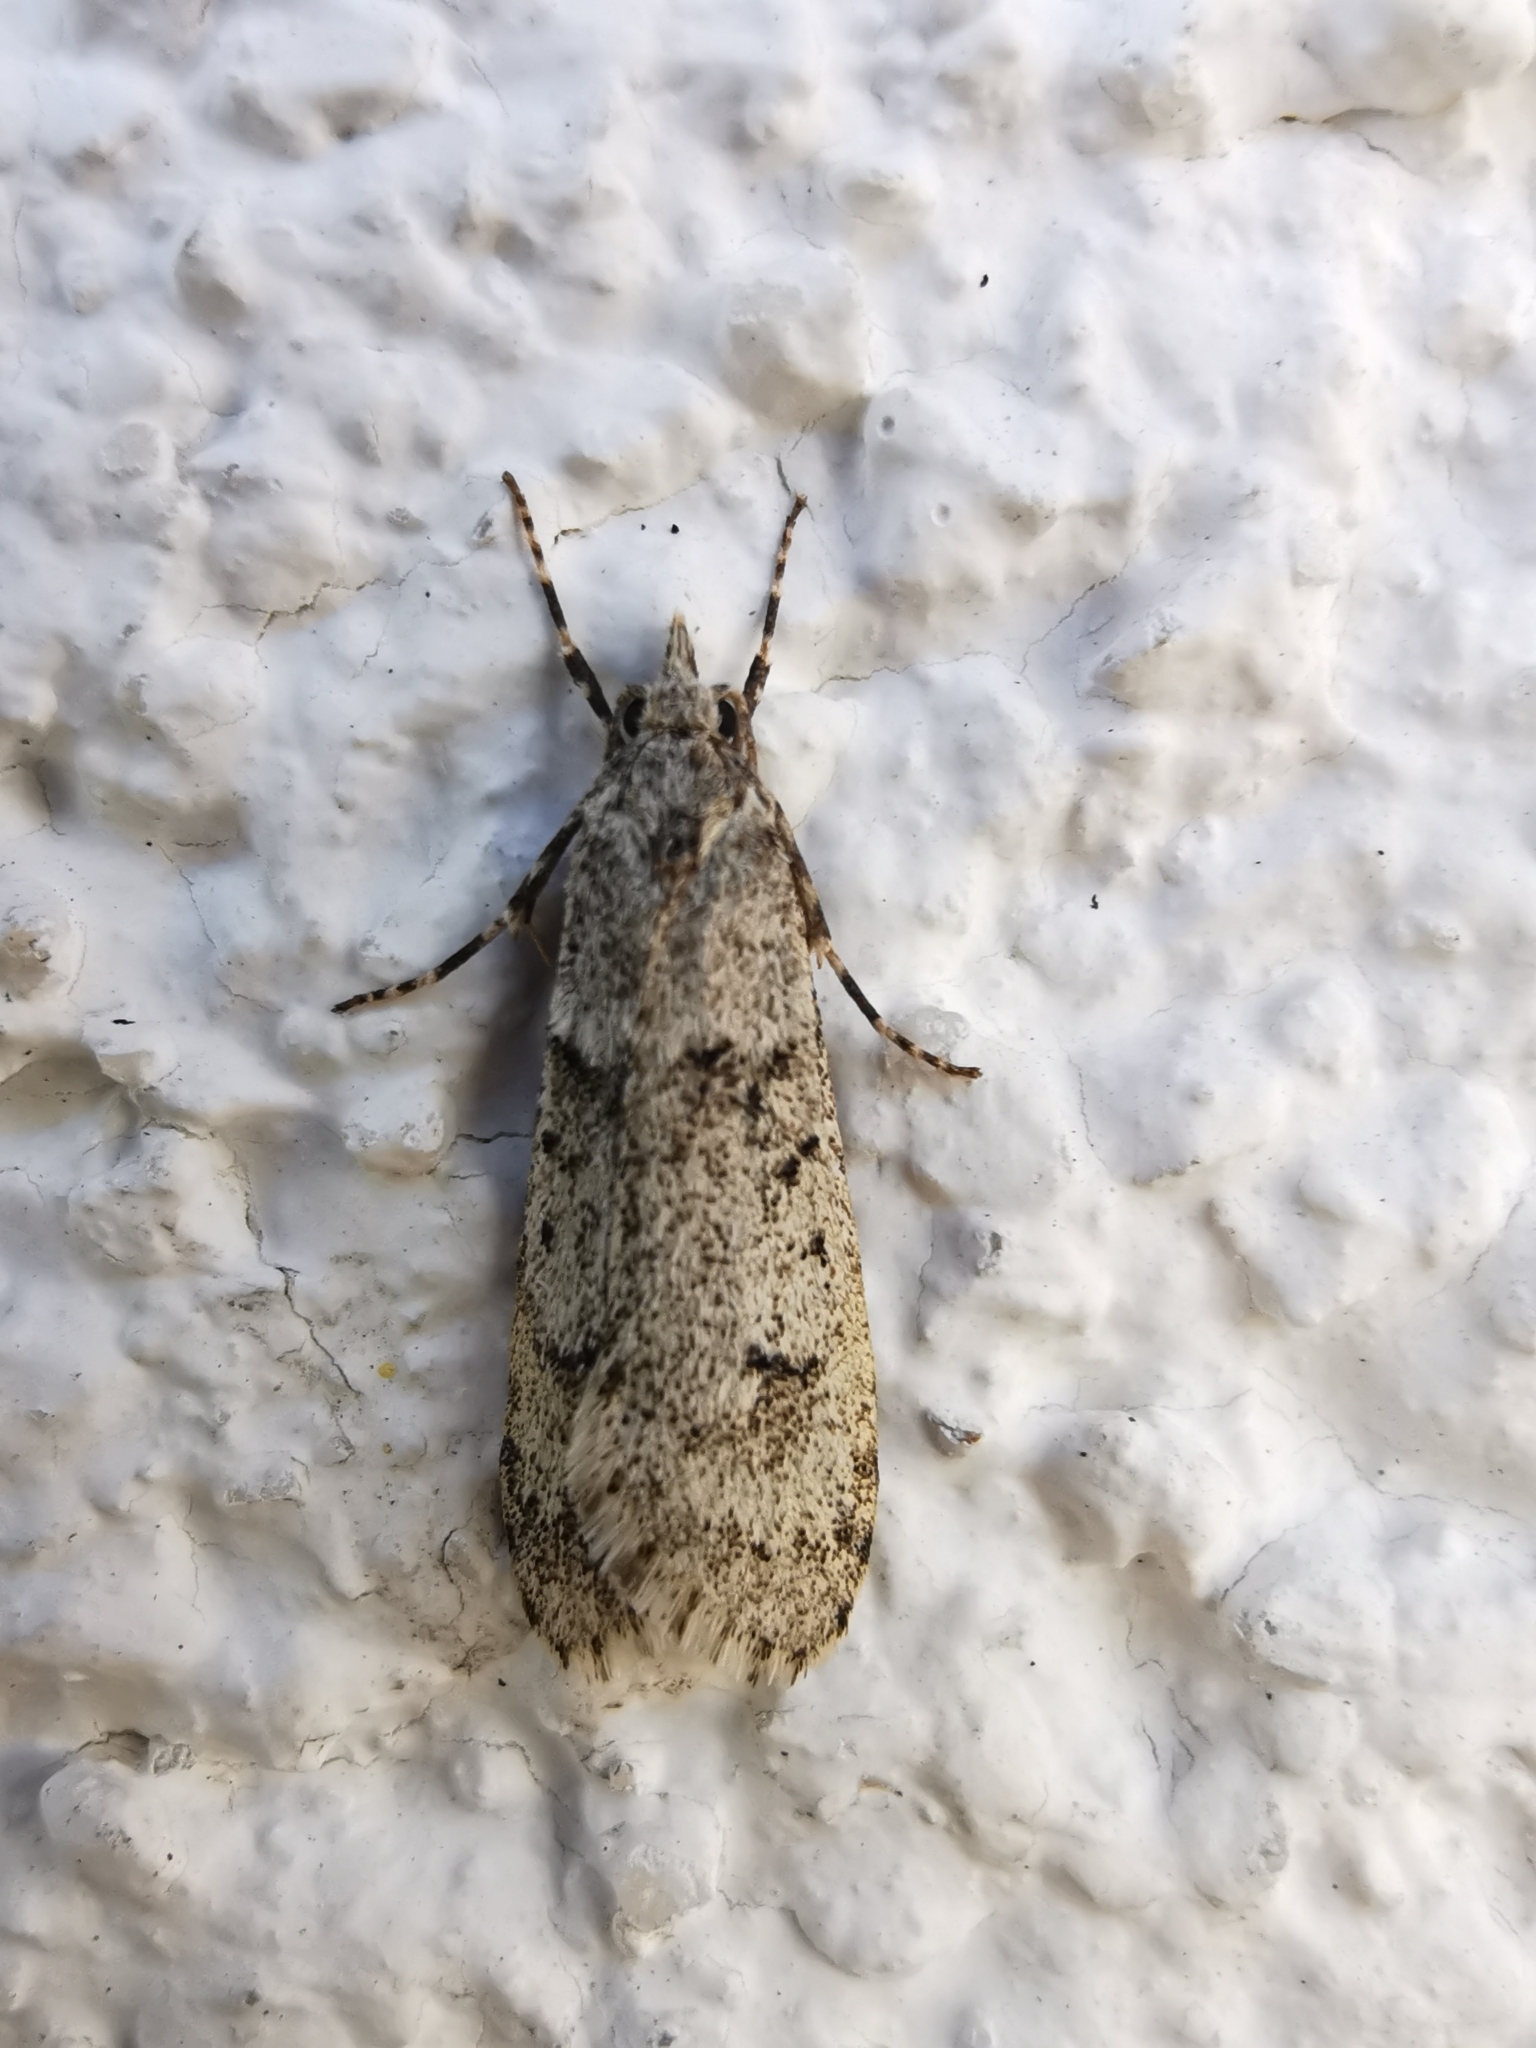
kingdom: Animalia
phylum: Arthropoda
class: Insecta
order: Lepidoptera
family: Lypusidae
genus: Diurnea
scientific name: Diurnea fagella
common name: March tubic
